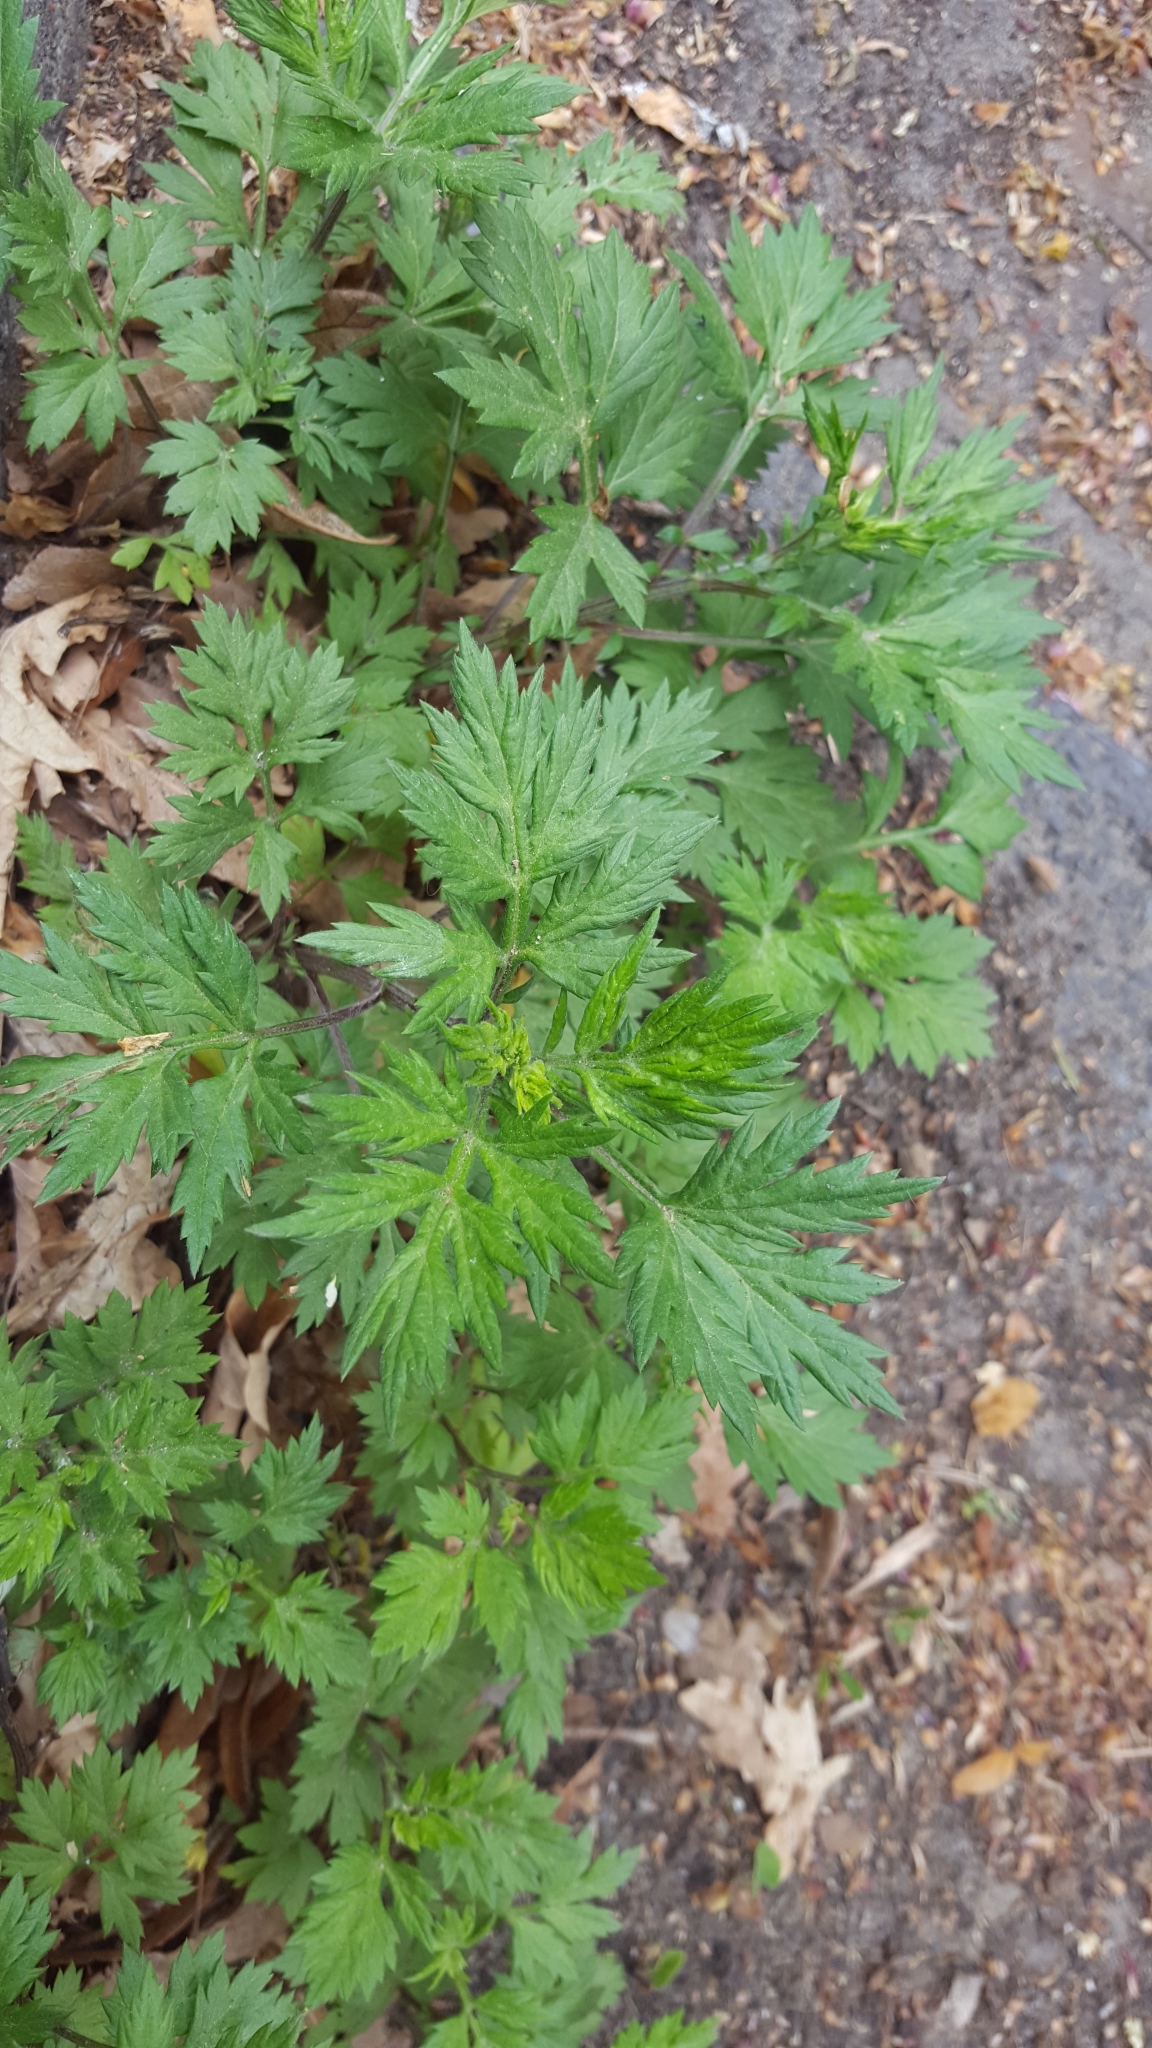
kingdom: Plantae
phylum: Tracheophyta
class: Magnoliopsida
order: Asterales
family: Asteraceae
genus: Artemisia
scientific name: Artemisia vulgaris
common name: Mugwort
